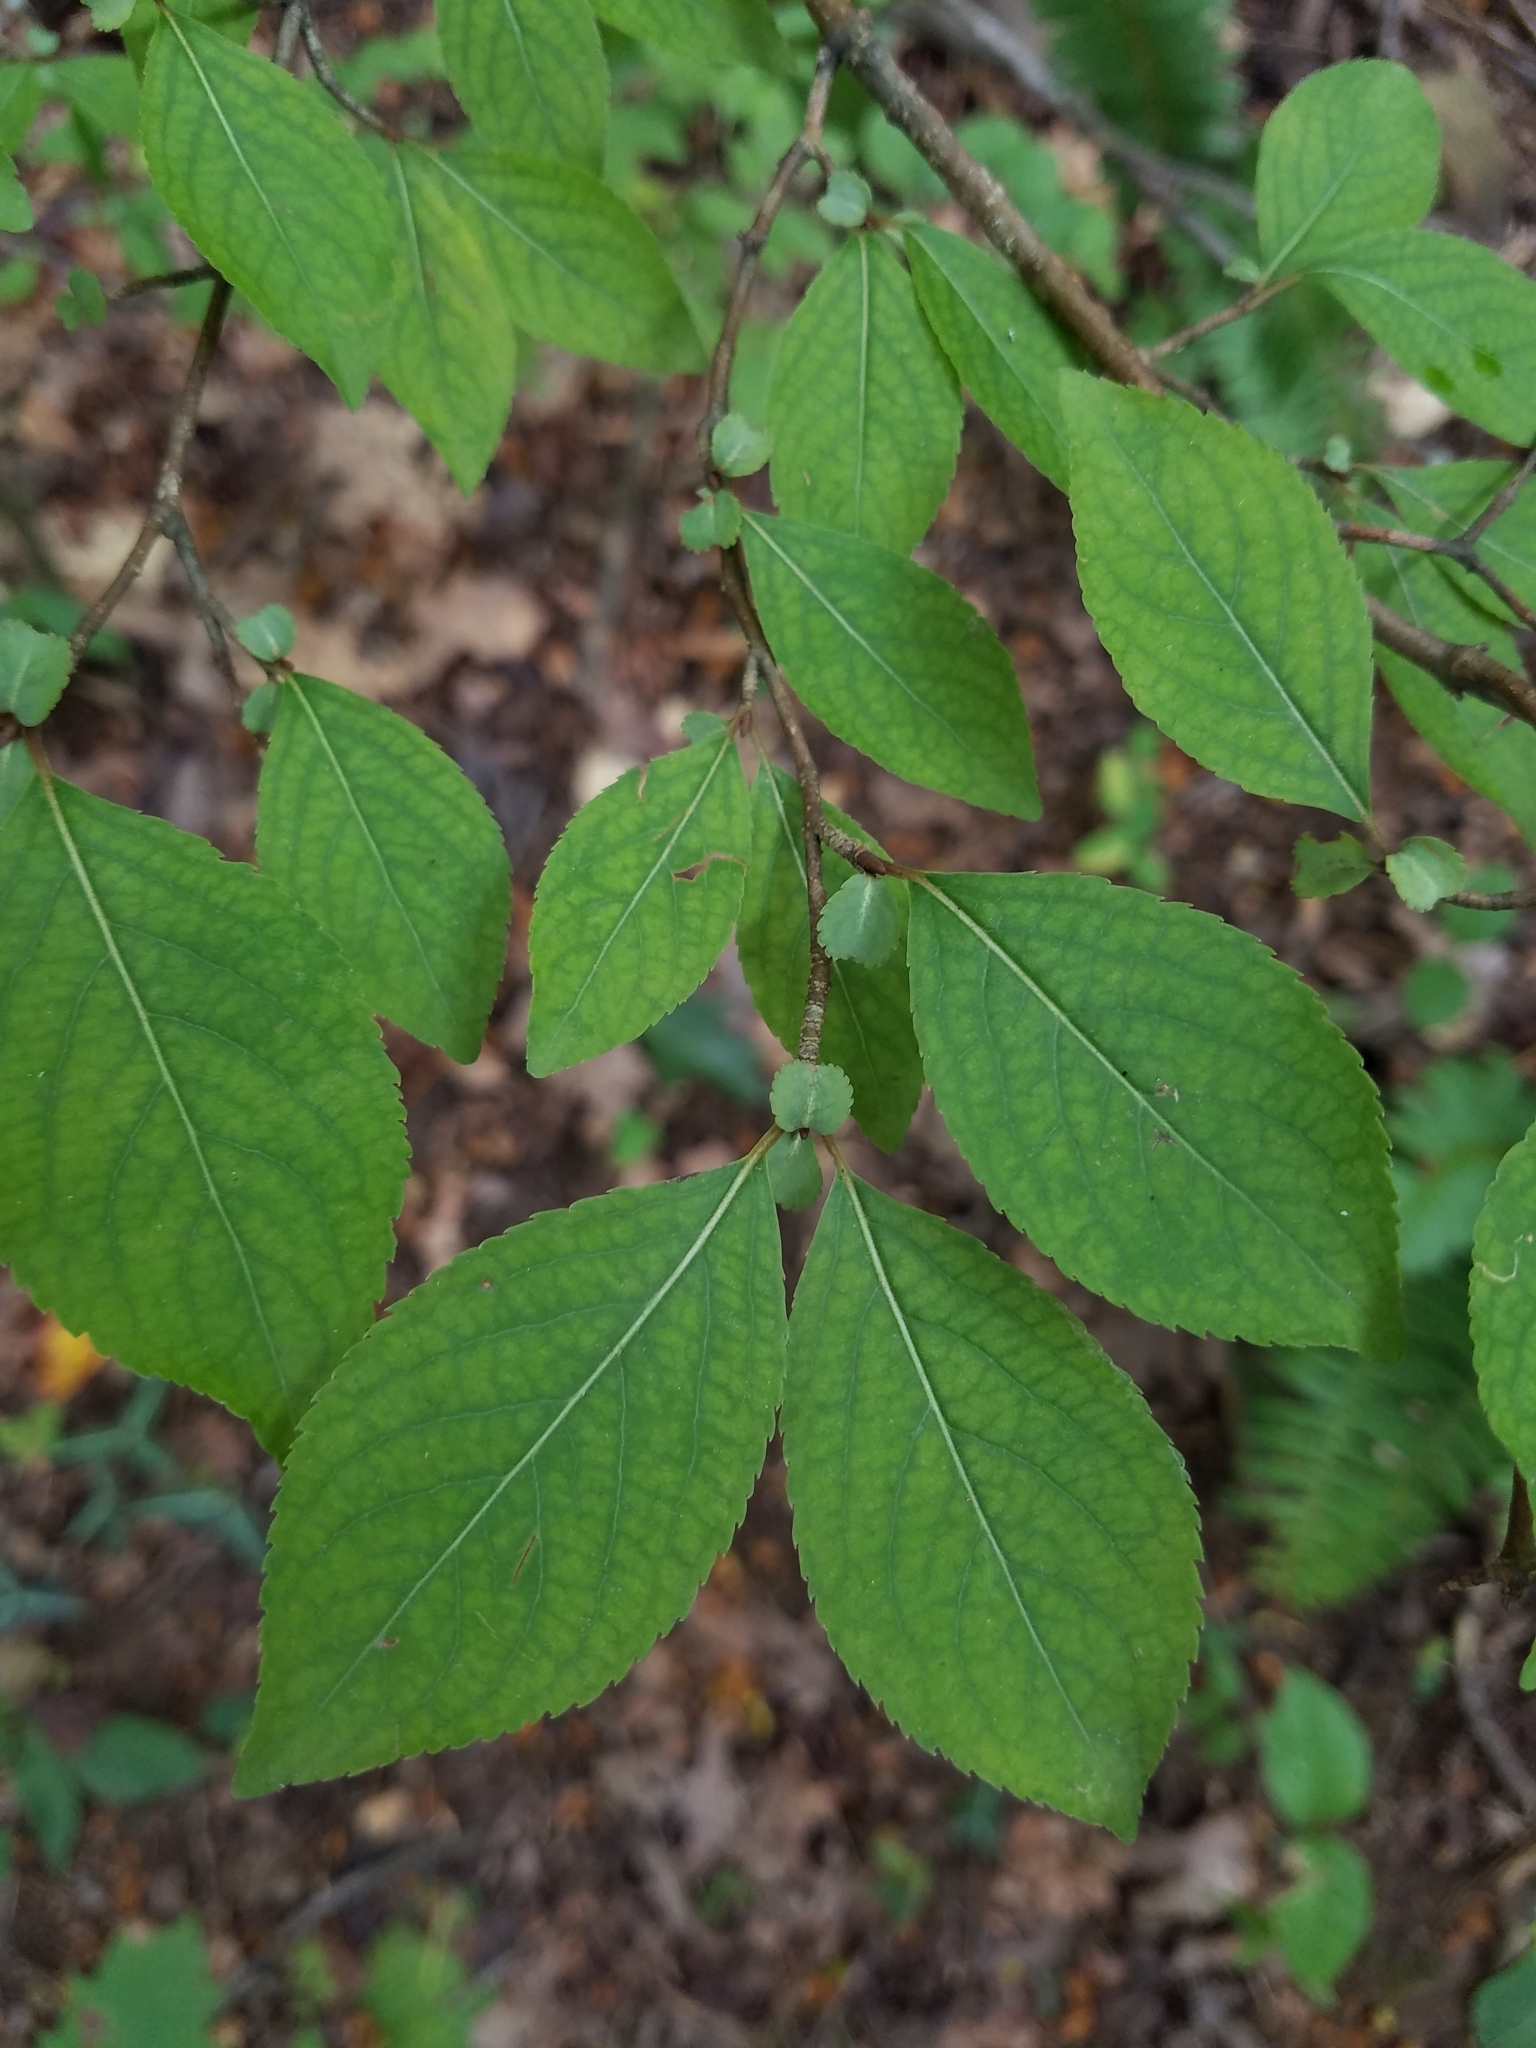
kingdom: Plantae
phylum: Tracheophyta
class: Magnoliopsida
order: Dipsacales
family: Viburnaceae
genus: Viburnum
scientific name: Viburnum prunifolium
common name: Black haw
